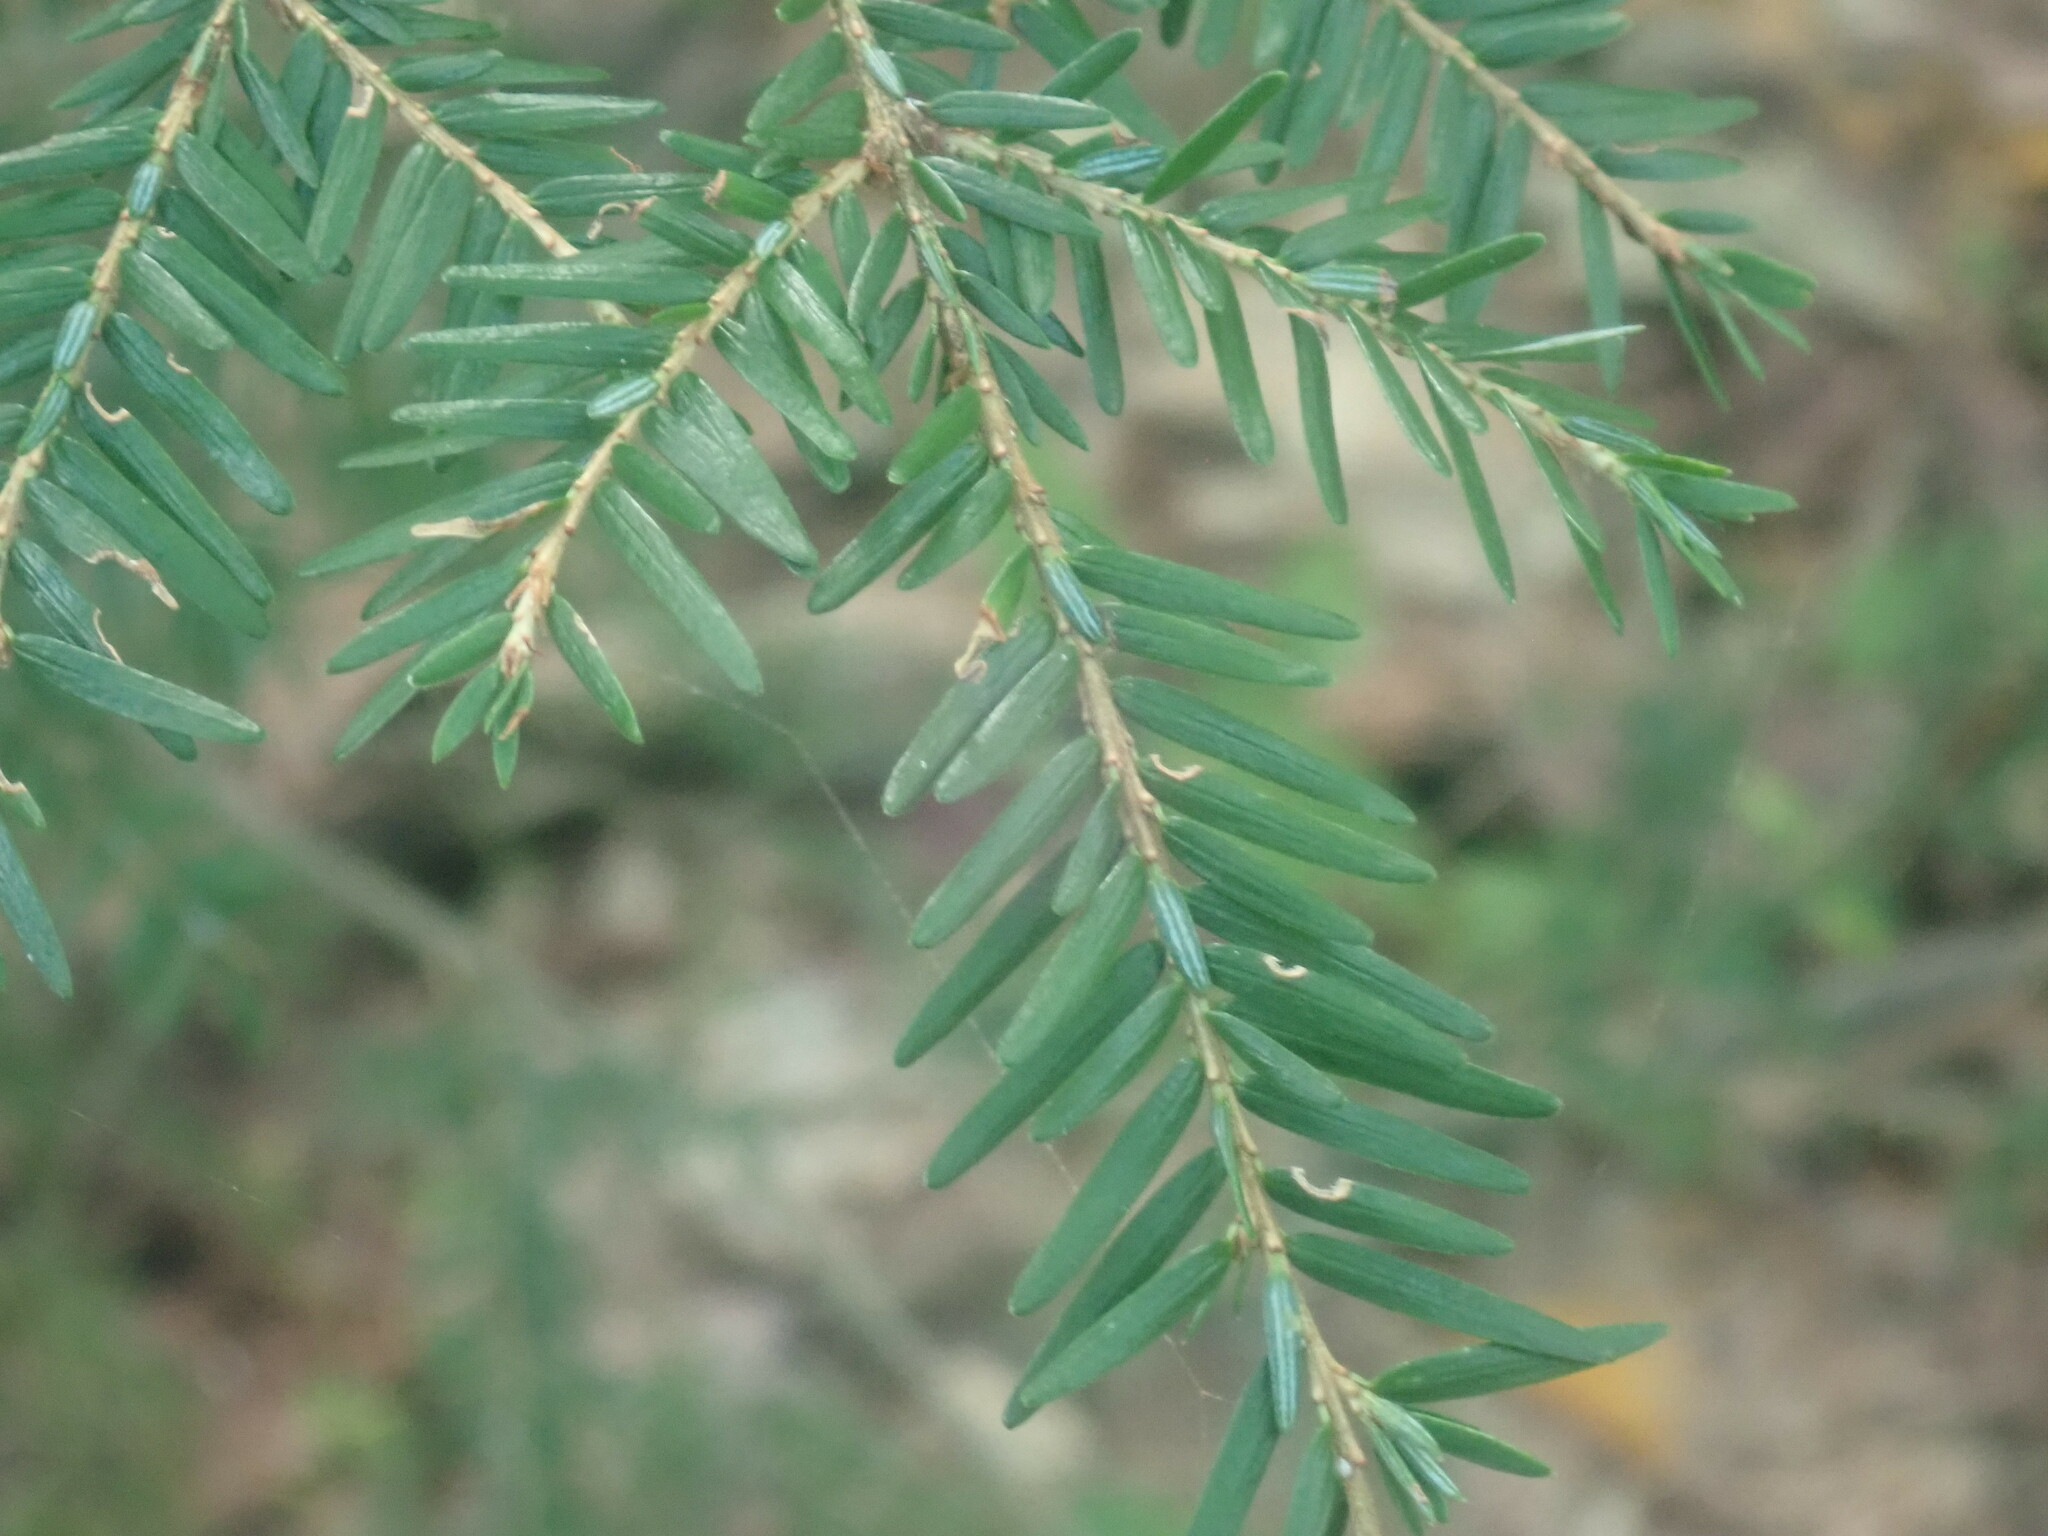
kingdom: Plantae
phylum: Tracheophyta
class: Pinopsida
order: Pinales
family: Pinaceae
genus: Tsuga
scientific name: Tsuga canadensis
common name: Eastern hemlock
